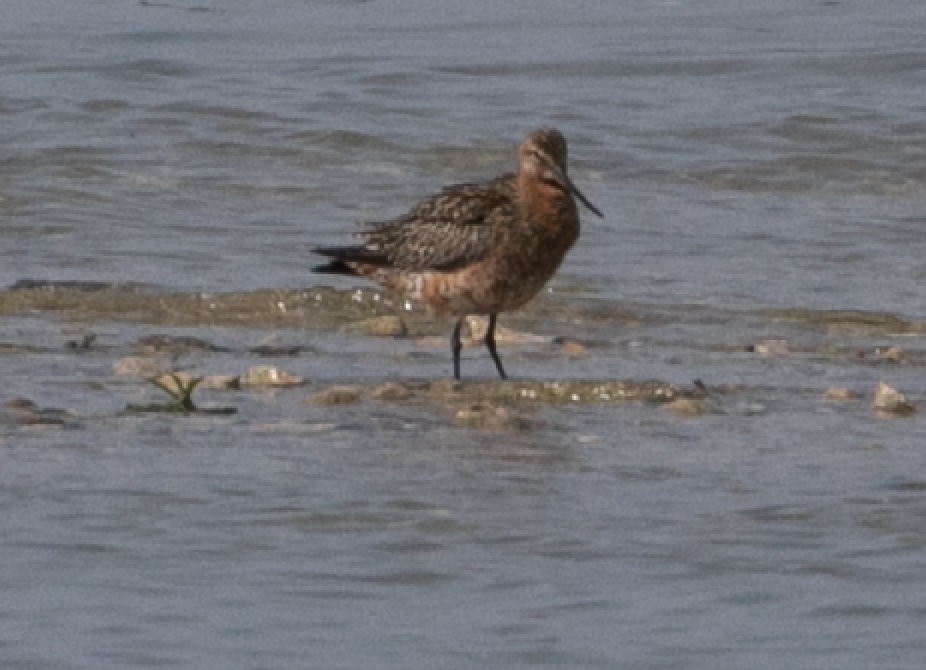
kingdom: Animalia
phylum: Chordata
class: Aves
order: Charadriiformes
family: Scolopacidae
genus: Limosa
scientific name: Limosa lapponica
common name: Bar-tailed godwit
